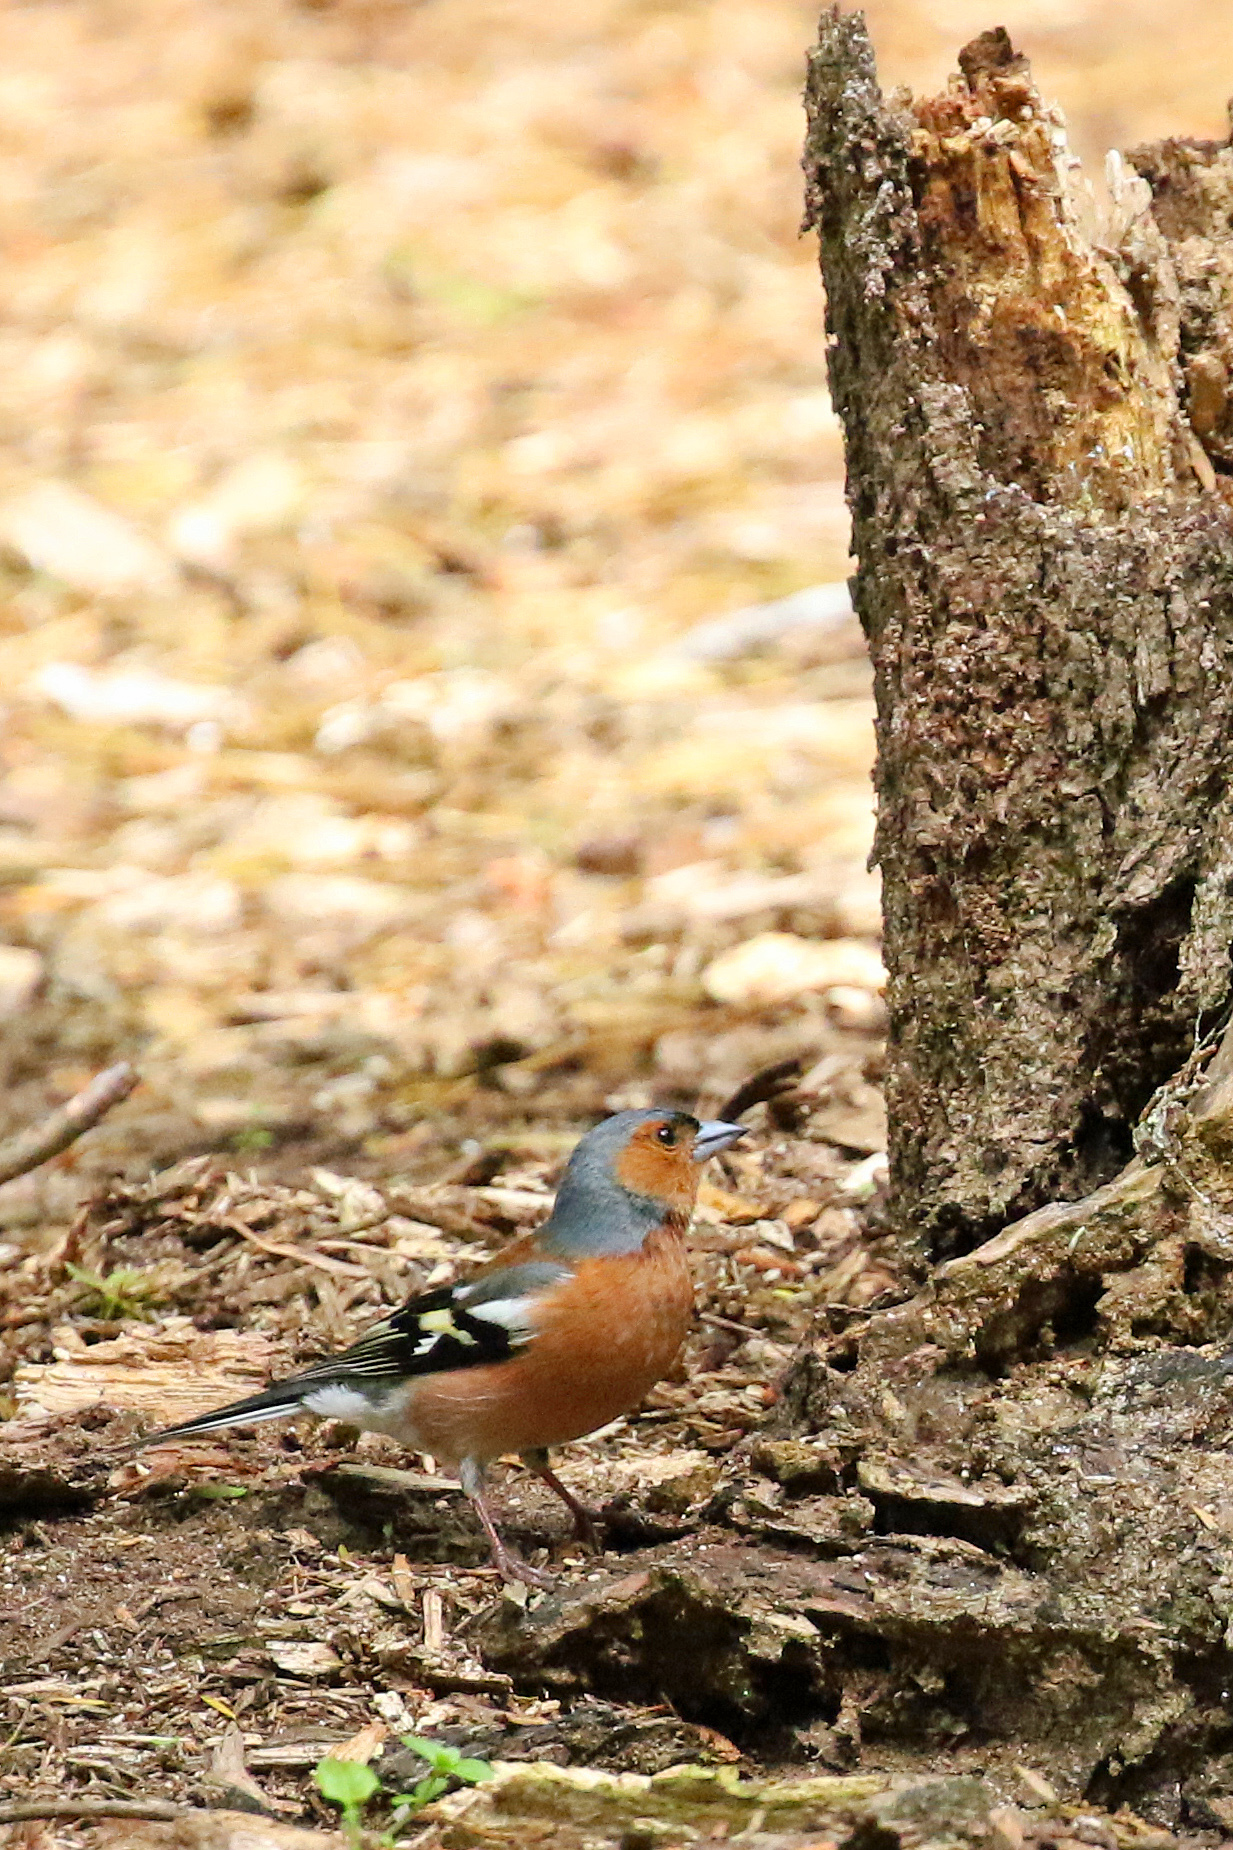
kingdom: Animalia
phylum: Chordata
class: Aves
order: Passeriformes
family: Fringillidae
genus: Fringilla
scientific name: Fringilla coelebs
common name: Common chaffinch
